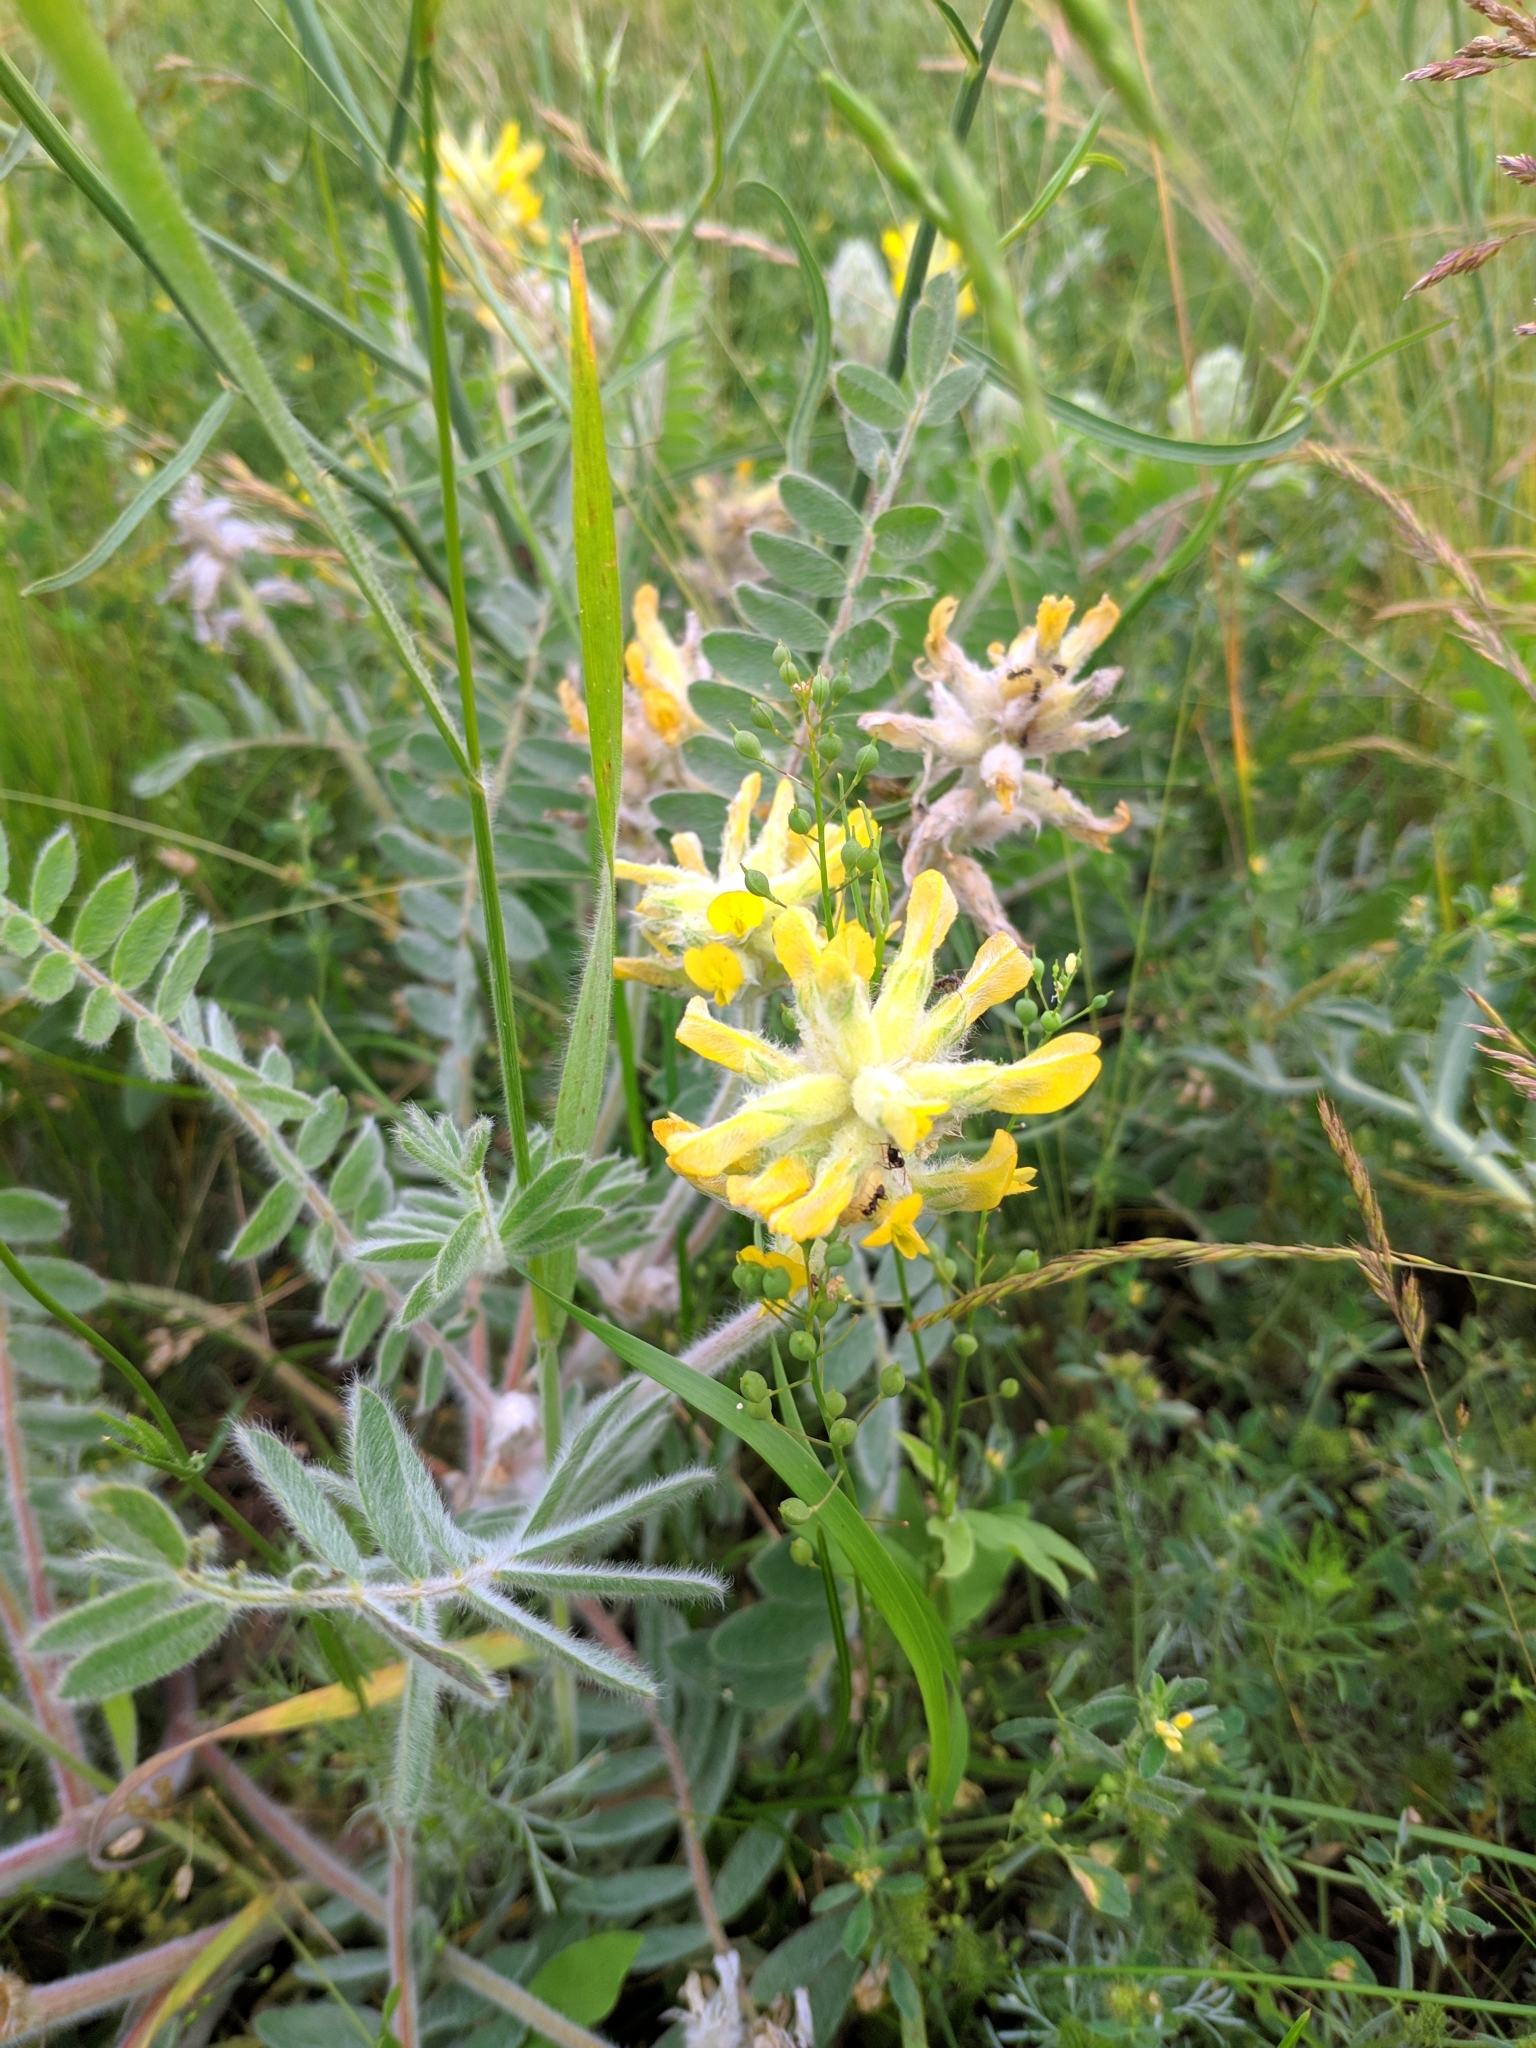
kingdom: Plantae
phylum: Tracheophyta
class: Magnoliopsida
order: Fabales
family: Fabaceae
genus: Astragalus
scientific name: Astragalus dasyanthus
